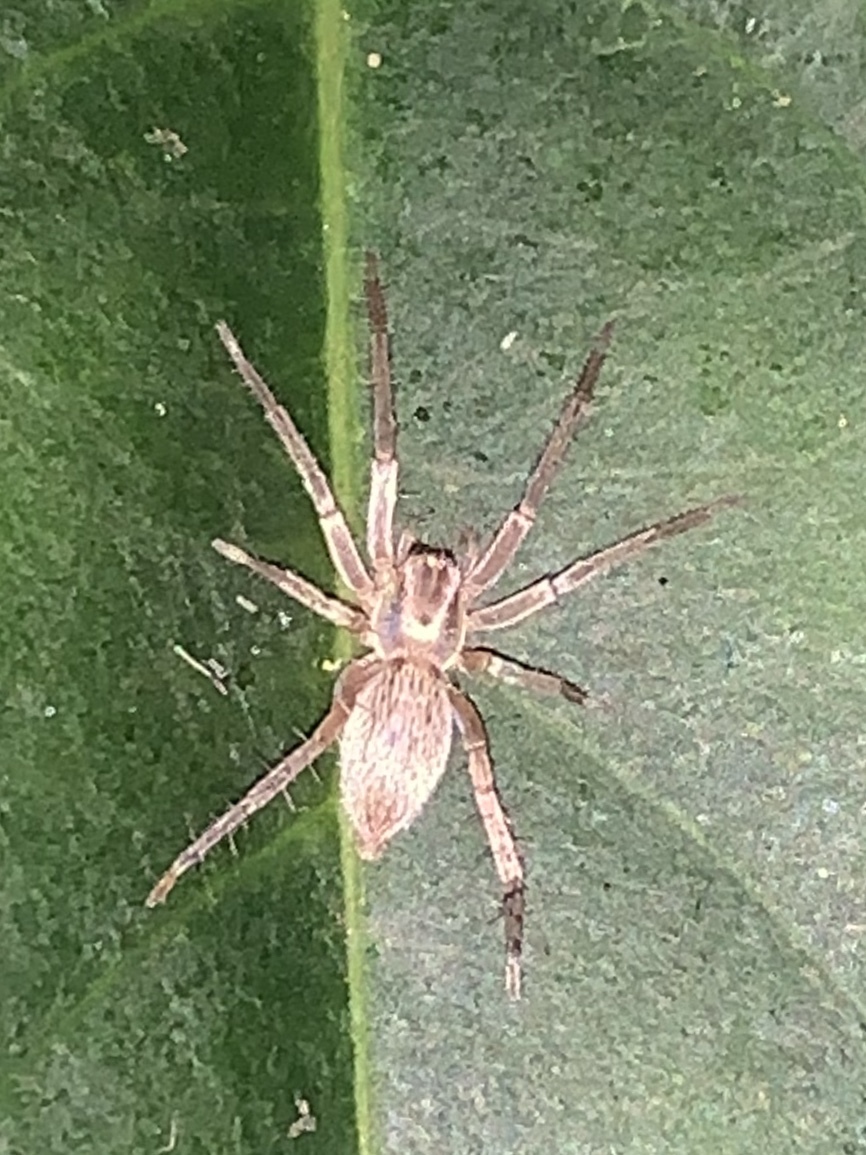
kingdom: Animalia
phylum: Arthropoda
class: Arachnida
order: Araneae
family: Anyphaenidae
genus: Hibana
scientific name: Hibana gracilis
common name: Garden ghost spider
